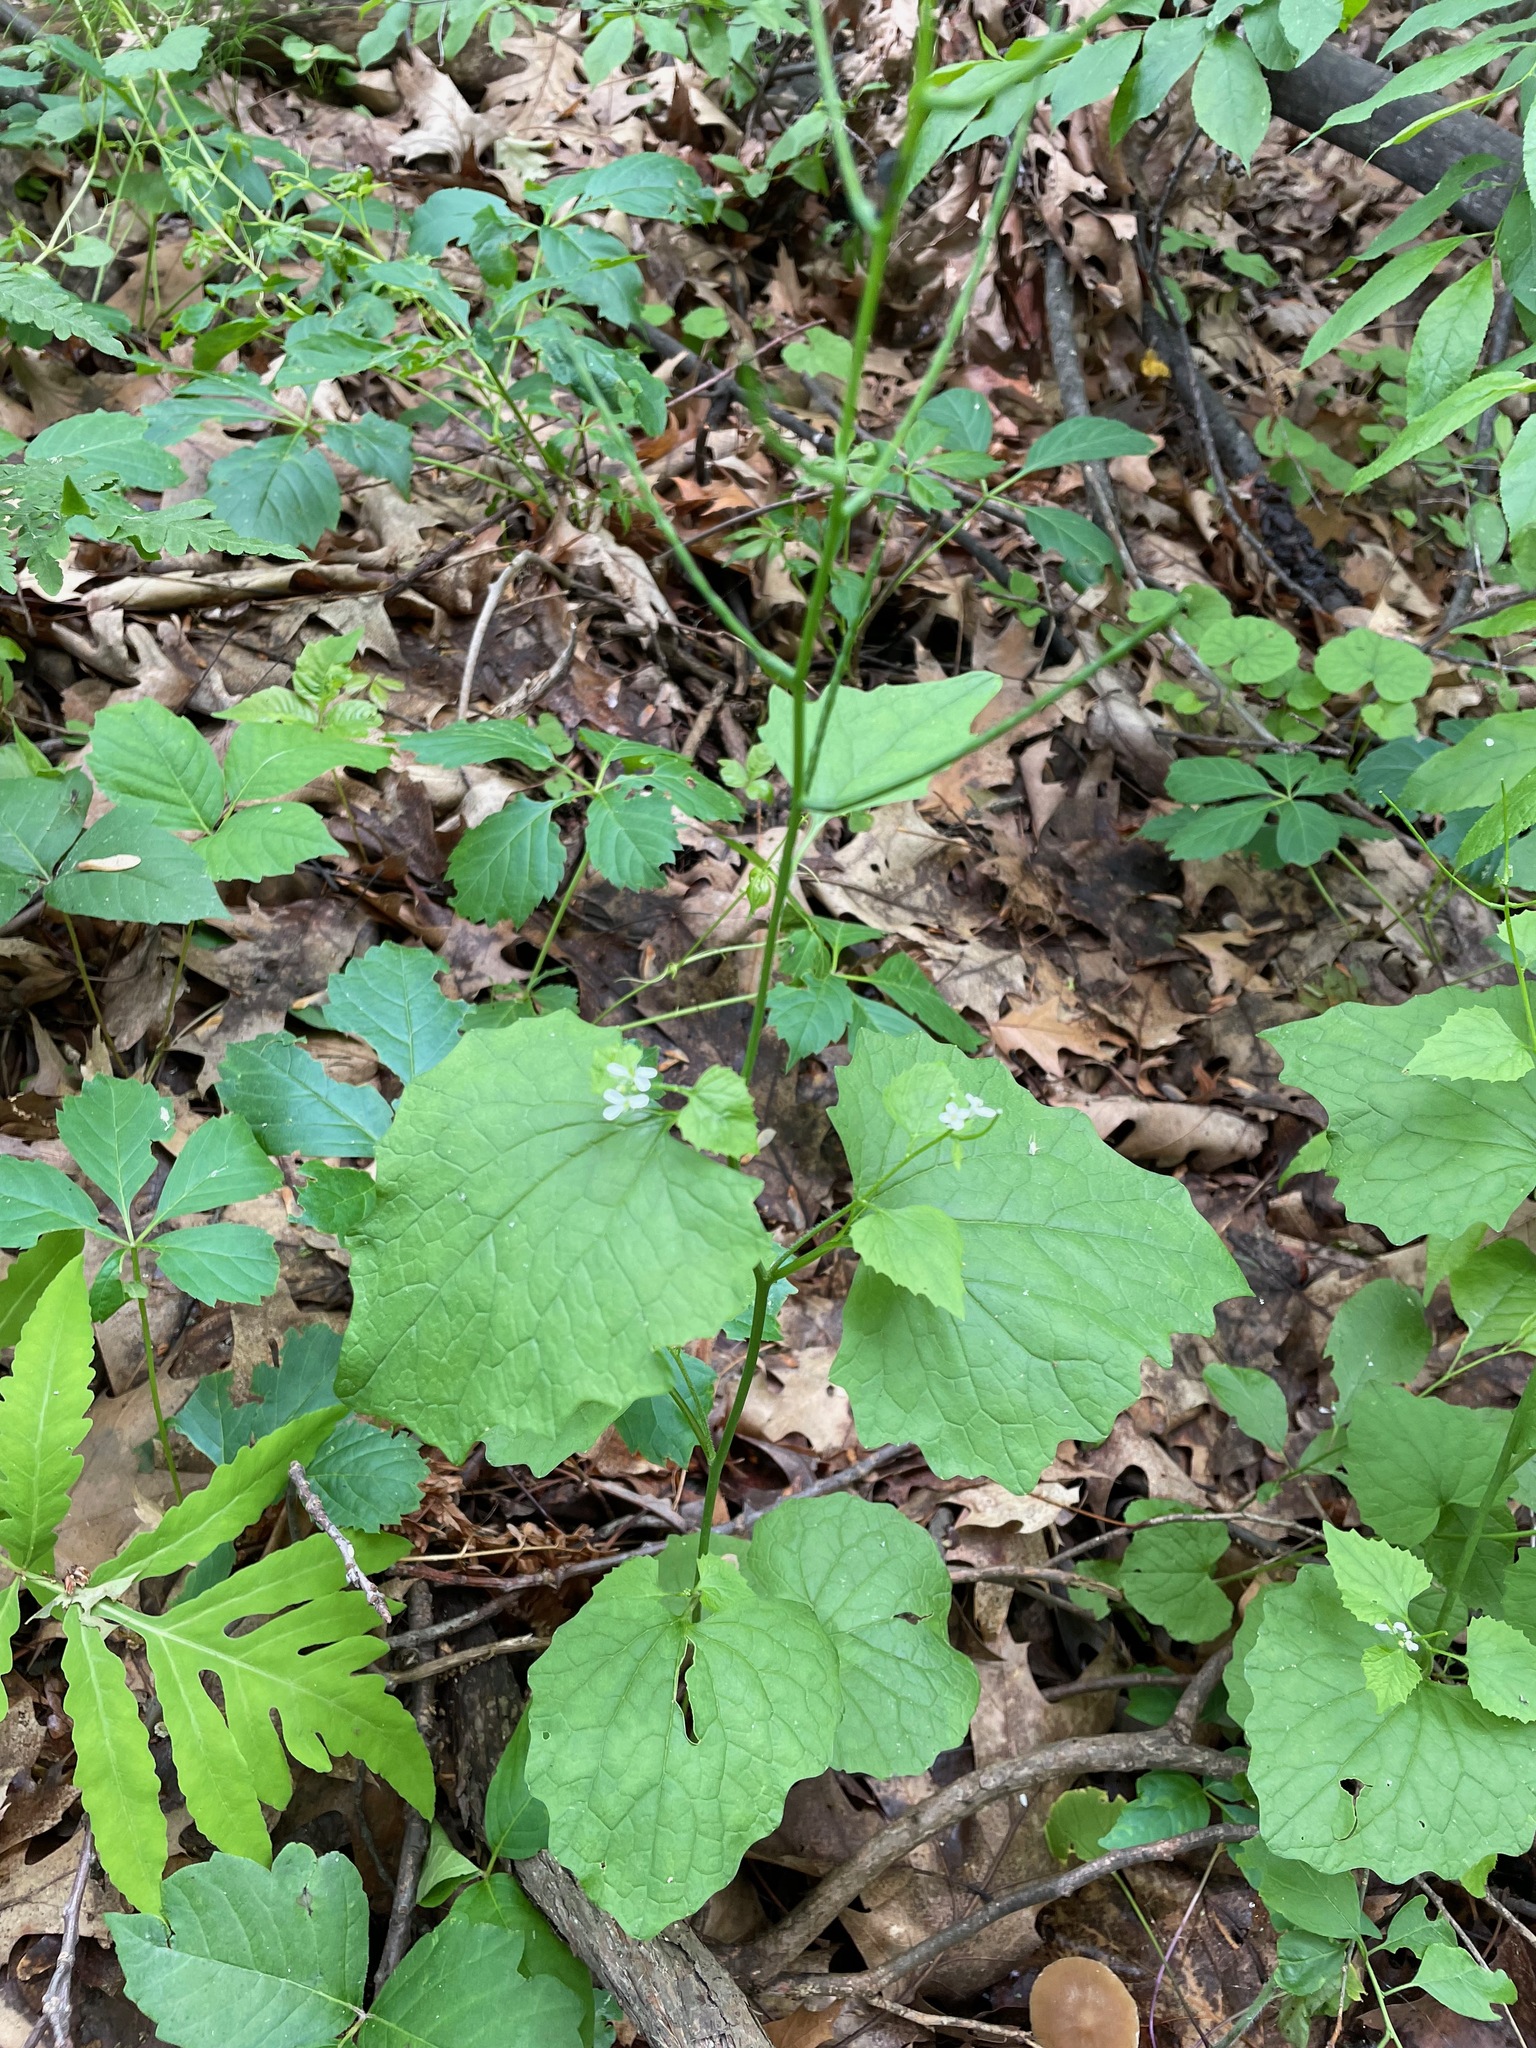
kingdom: Plantae
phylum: Tracheophyta
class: Magnoliopsida
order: Brassicales
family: Brassicaceae
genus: Alliaria
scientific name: Alliaria petiolata
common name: Garlic mustard
